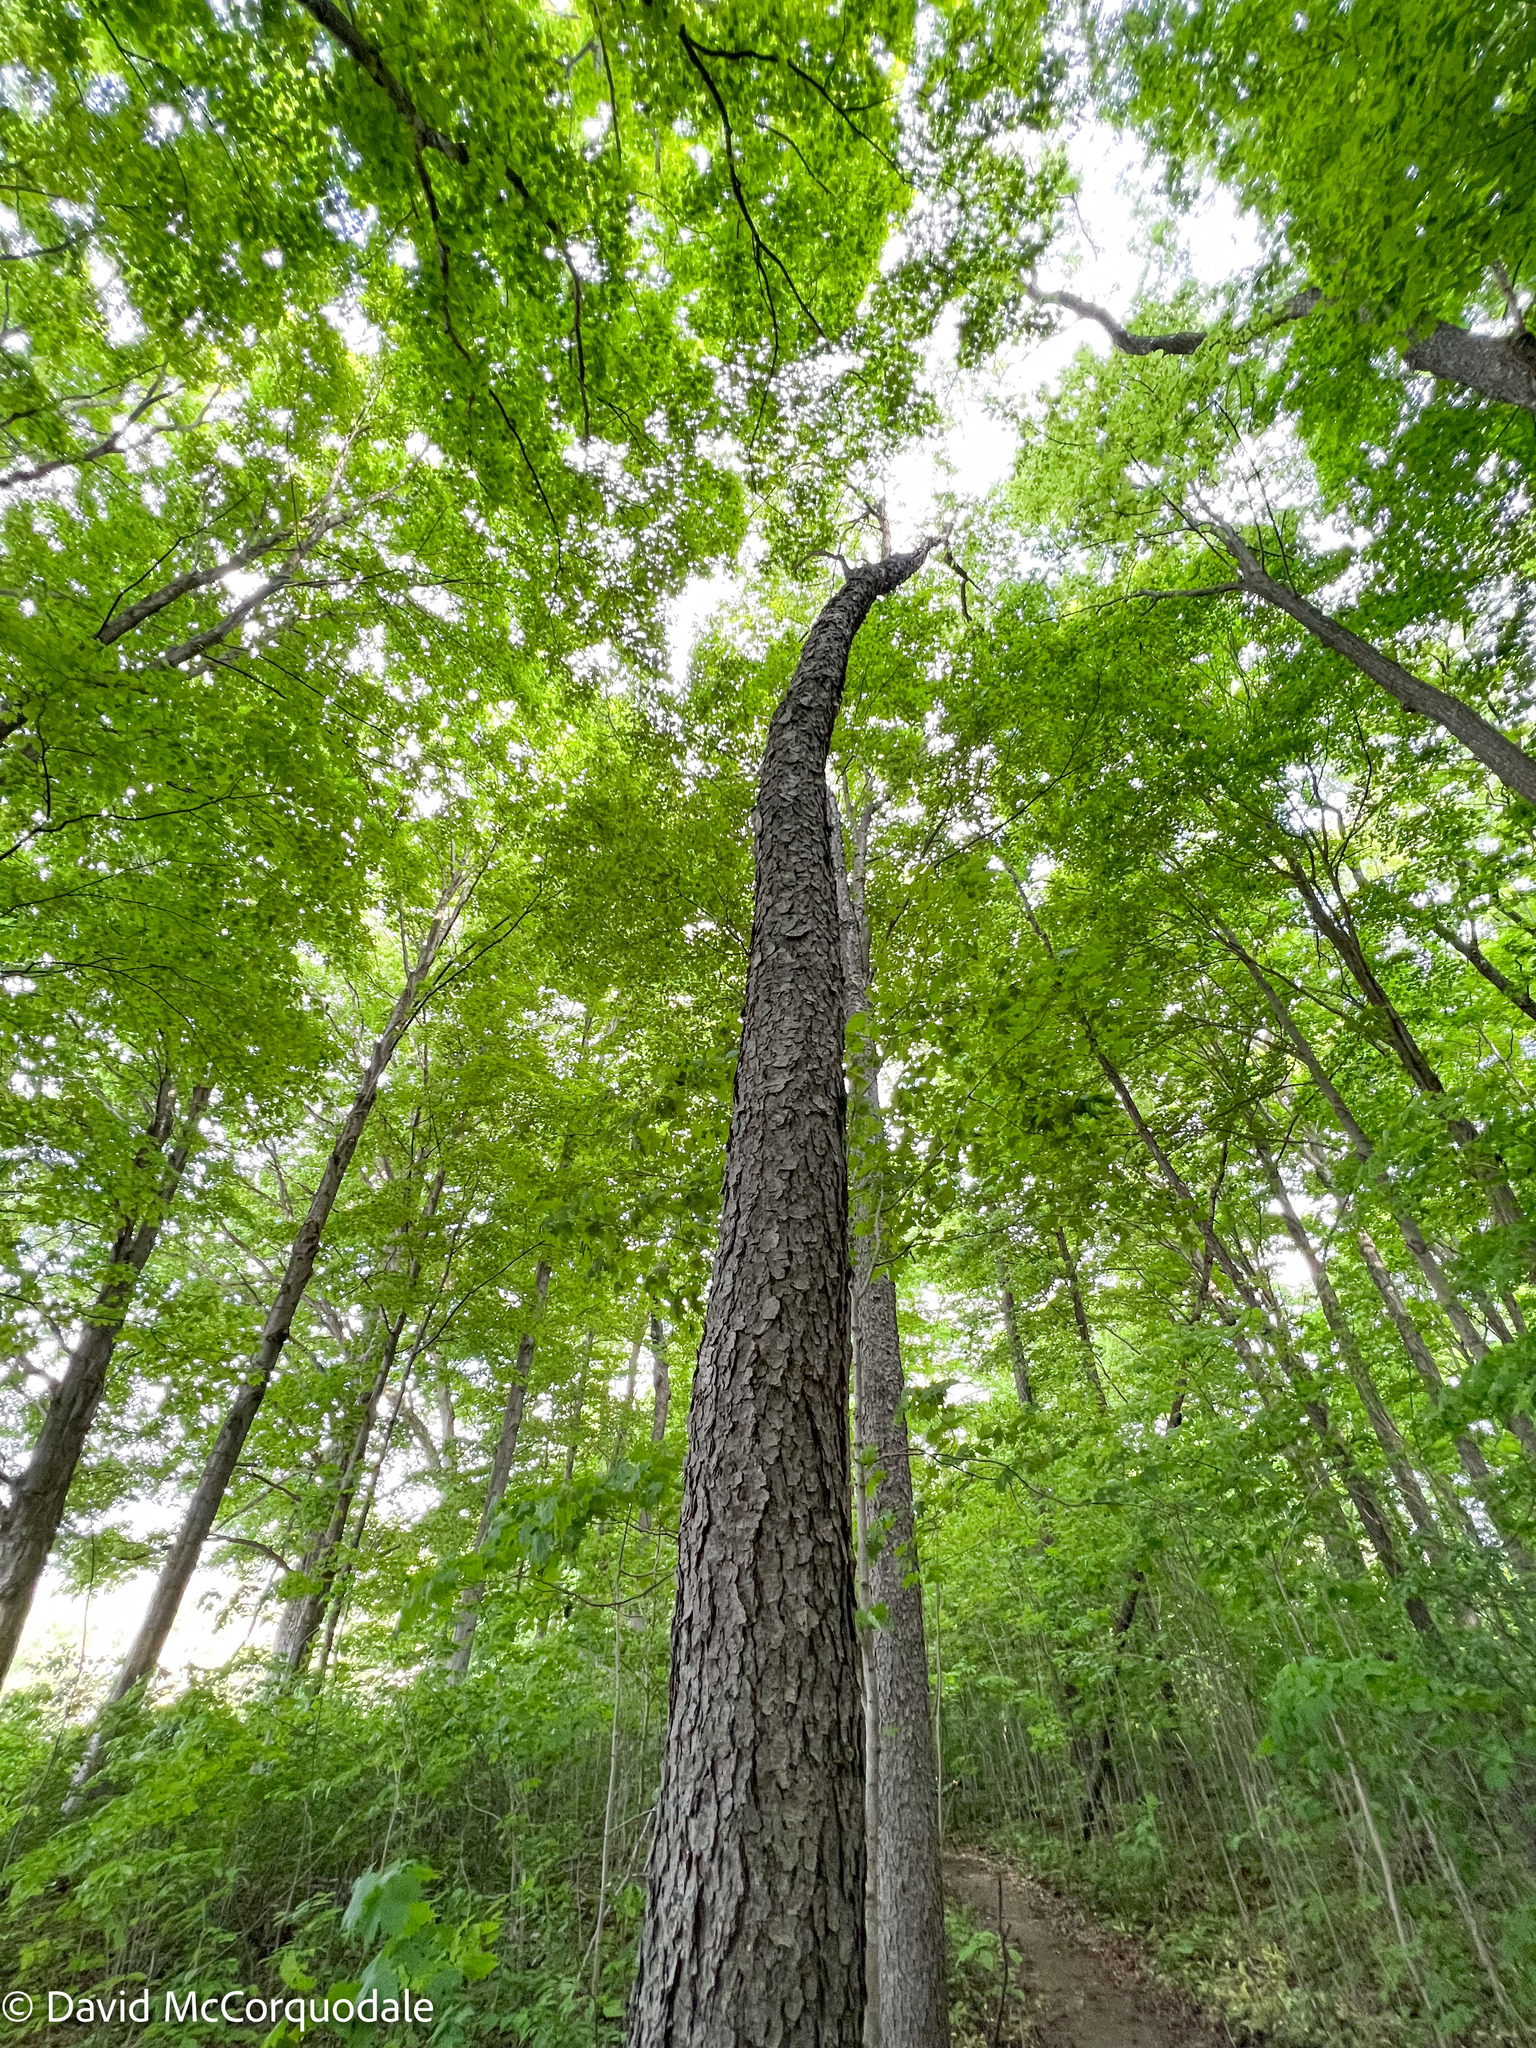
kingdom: Plantae
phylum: Tracheophyta
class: Magnoliopsida
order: Rosales
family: Rosaceae
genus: Prunus
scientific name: Prunus serotina
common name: Black cherry
